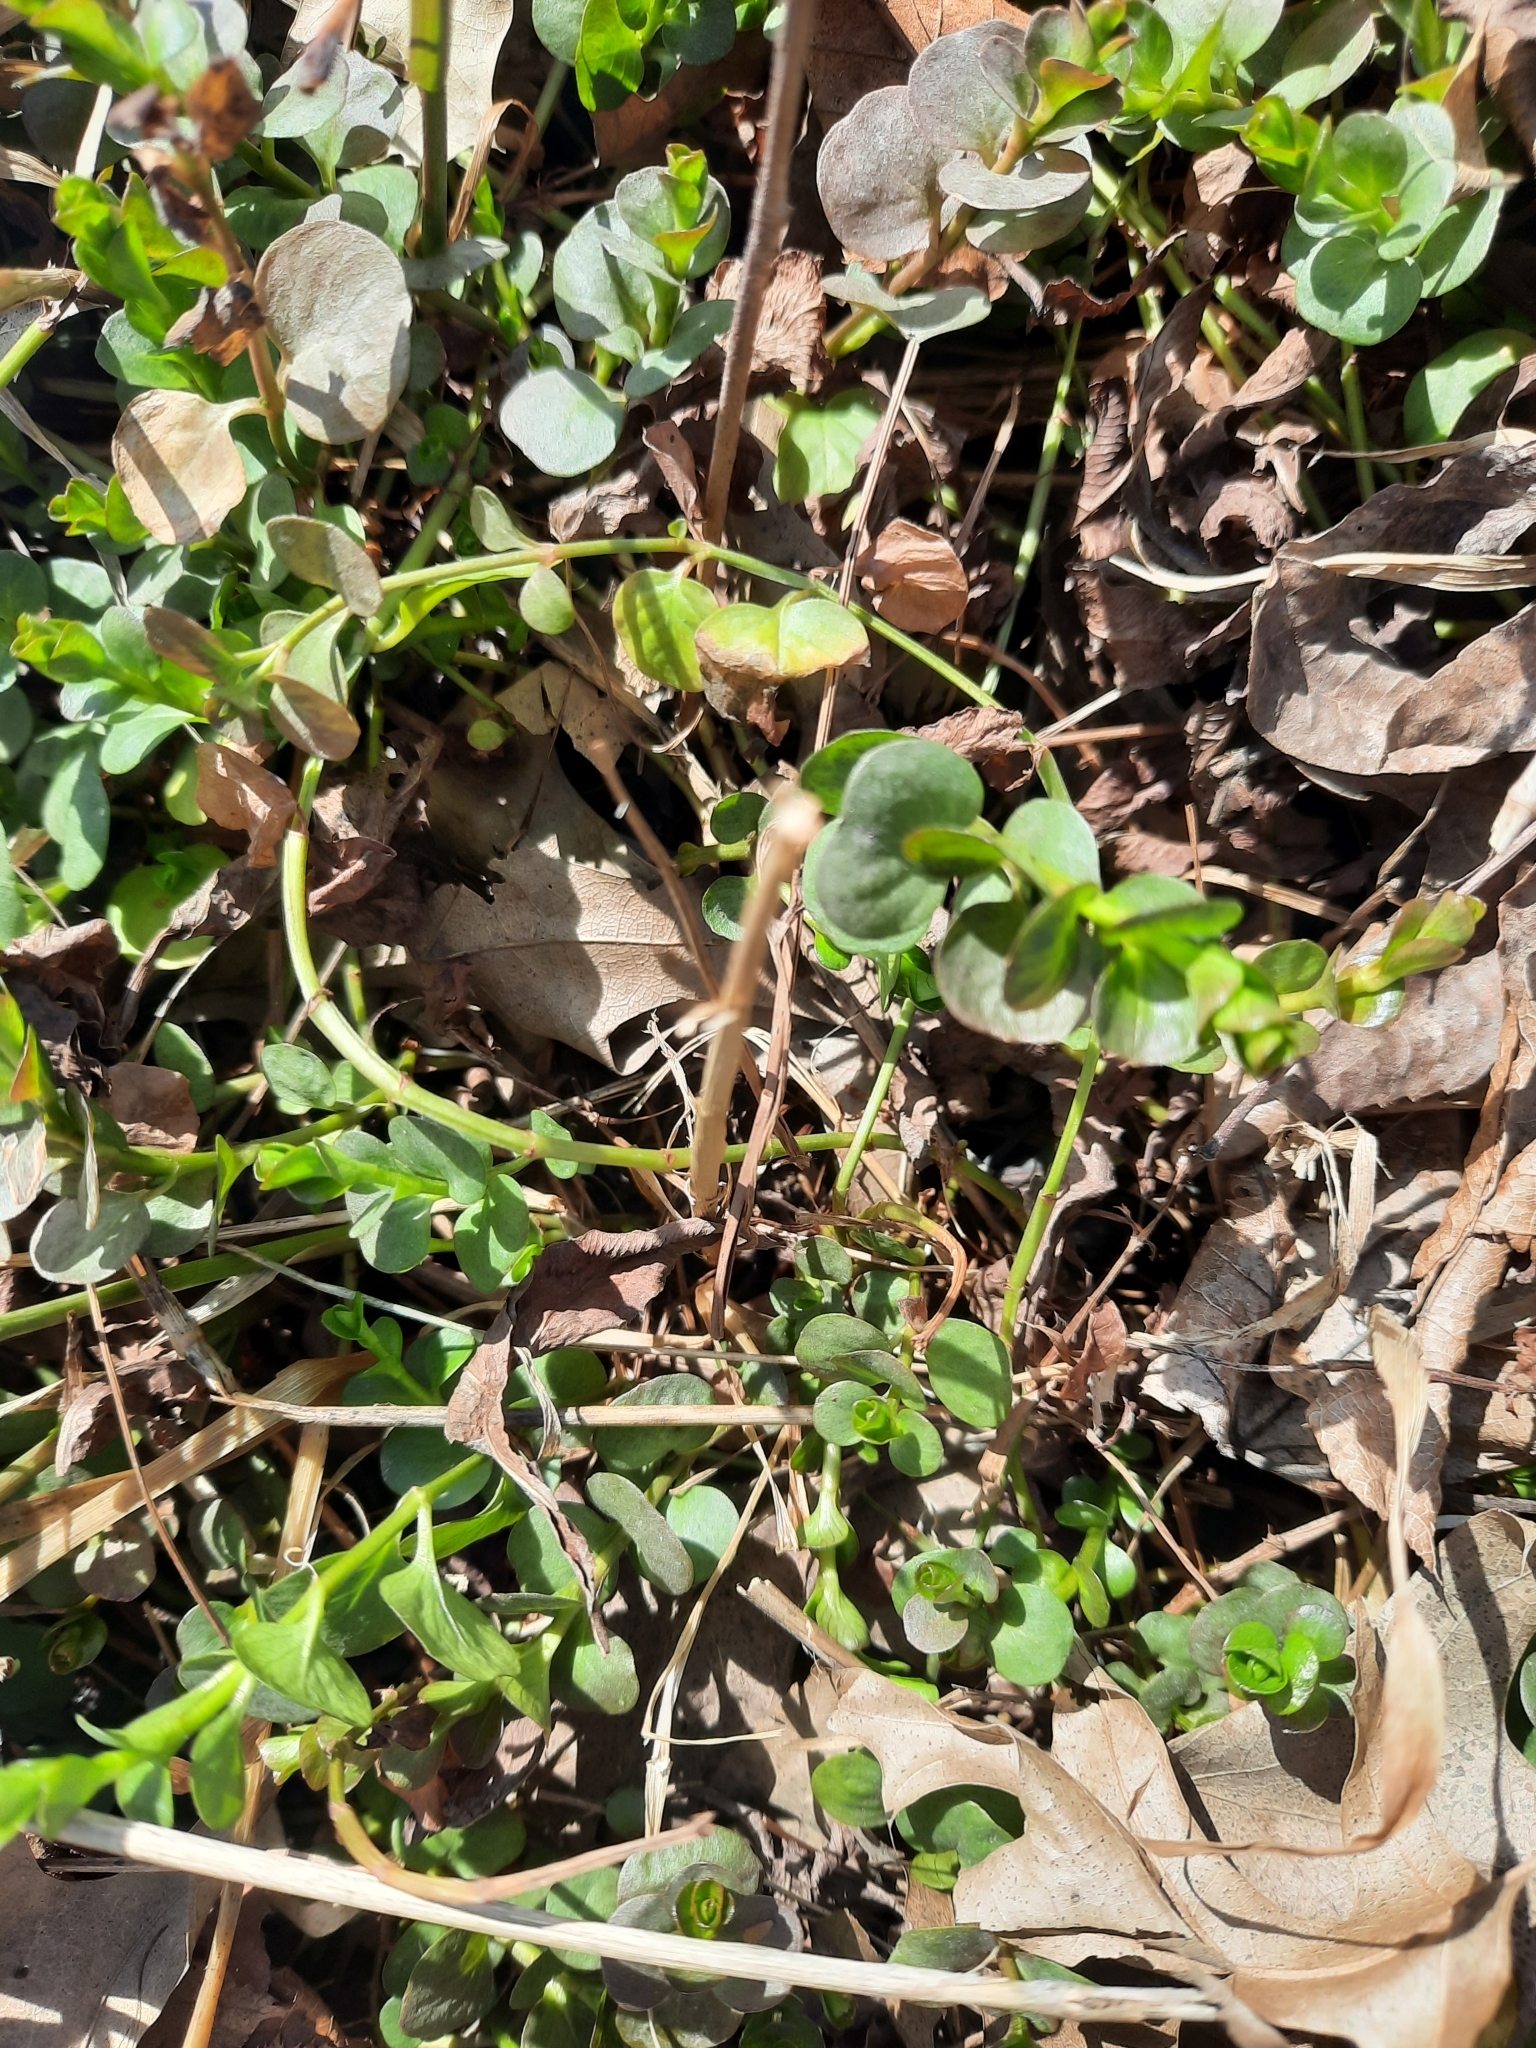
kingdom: Plantae
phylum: Tracheophyta
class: Magnoliopsida
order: Ericales
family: Primulaceae
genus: Lysimachia
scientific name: Lysimachia nummularia
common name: Moneywort
